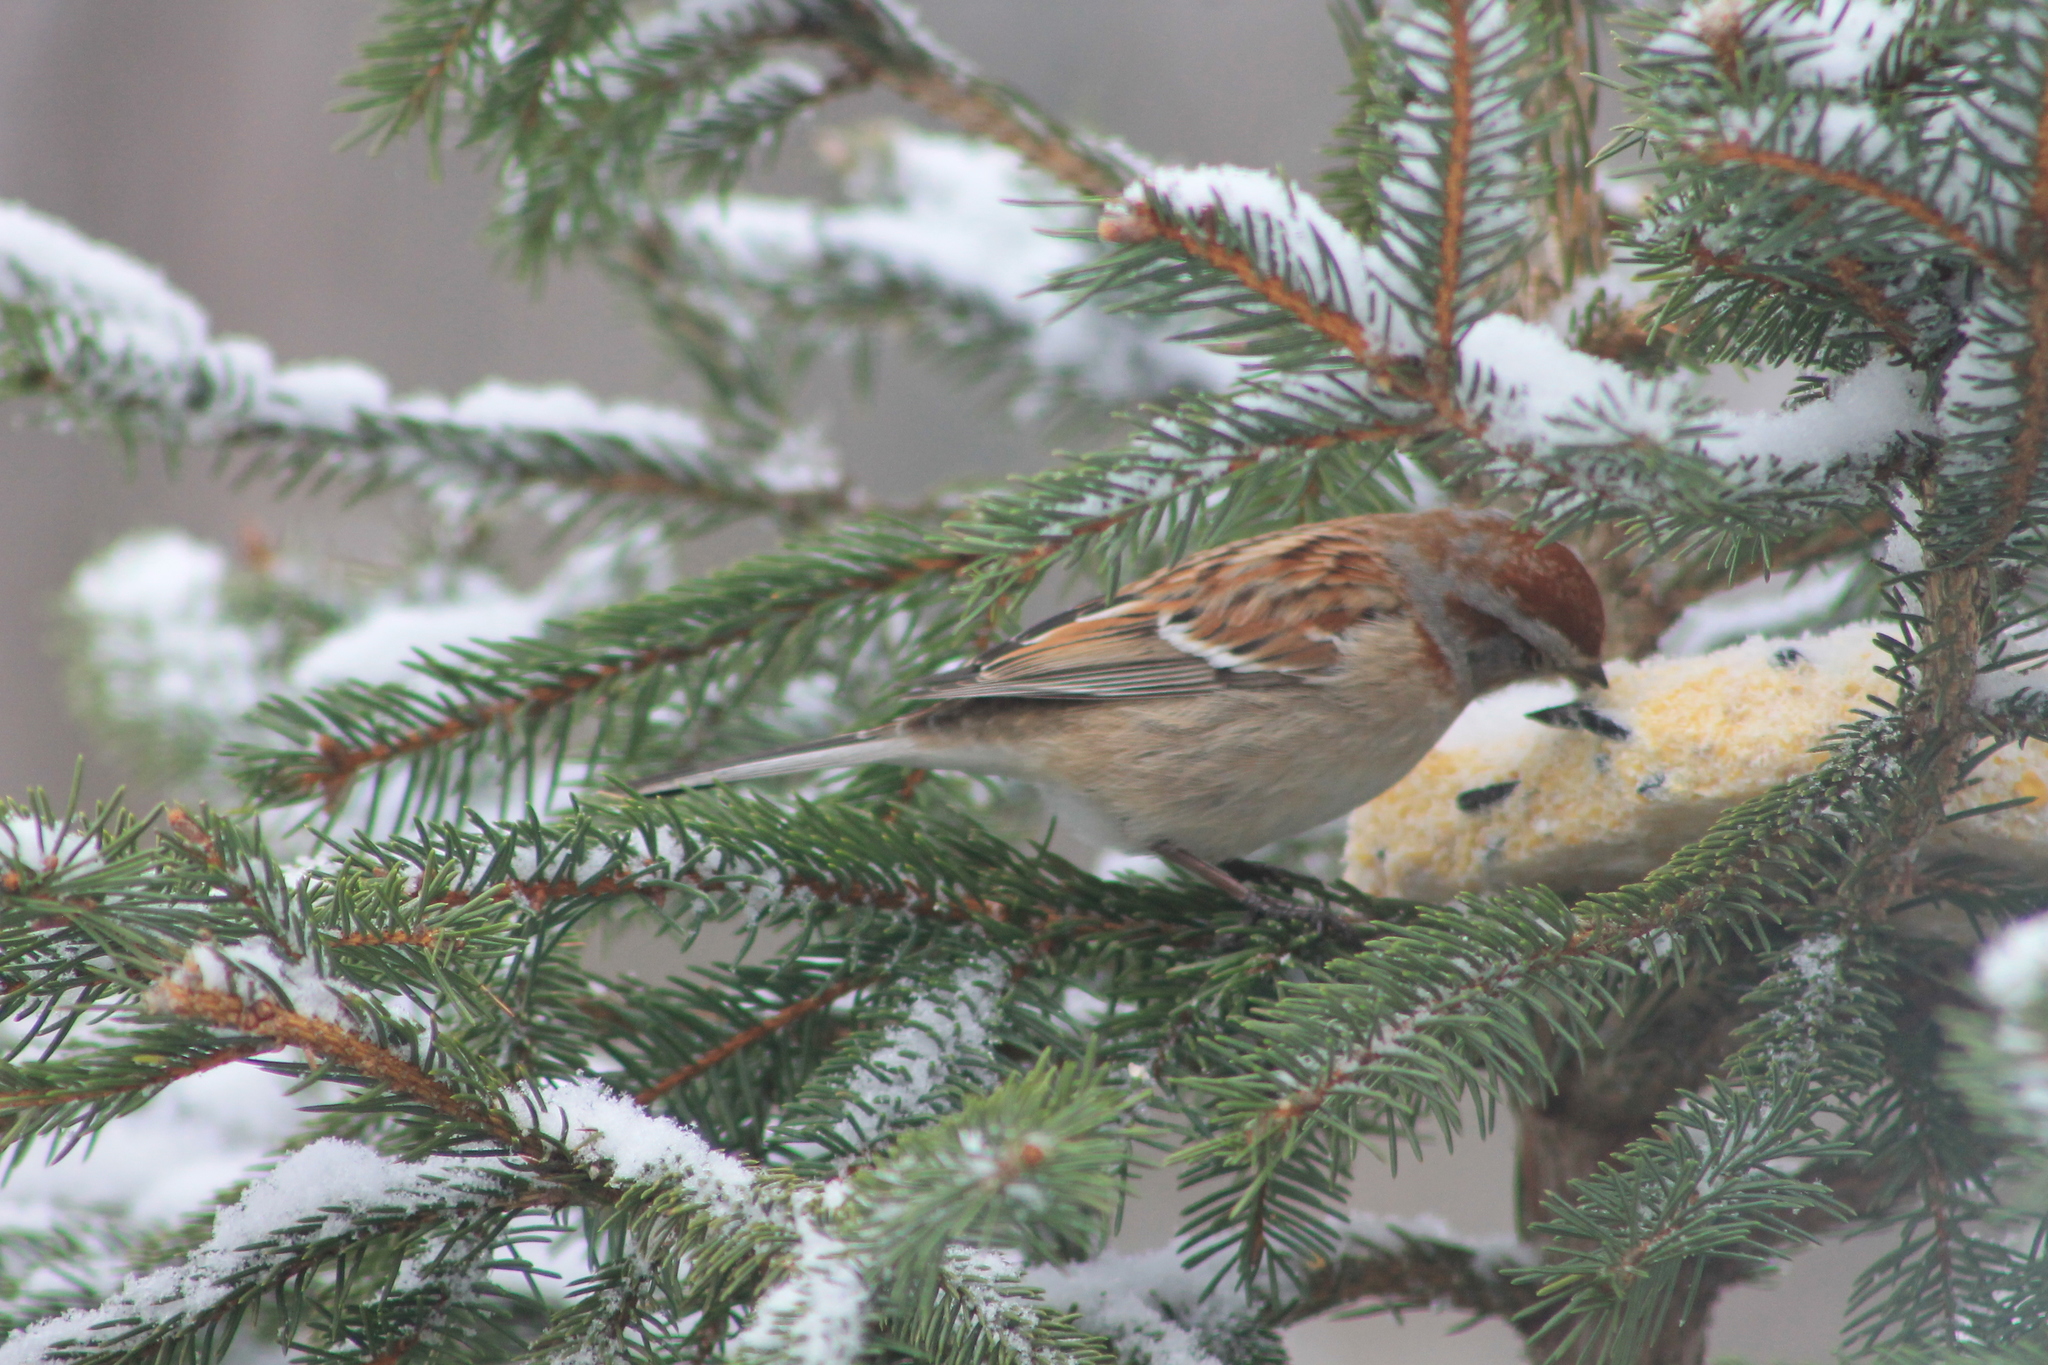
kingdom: Animalia
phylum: Chordata
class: Aves
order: Passeriformes
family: Passerellidae
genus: Spizelloides
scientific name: Spizelloides arborea
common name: American tree sparrow
